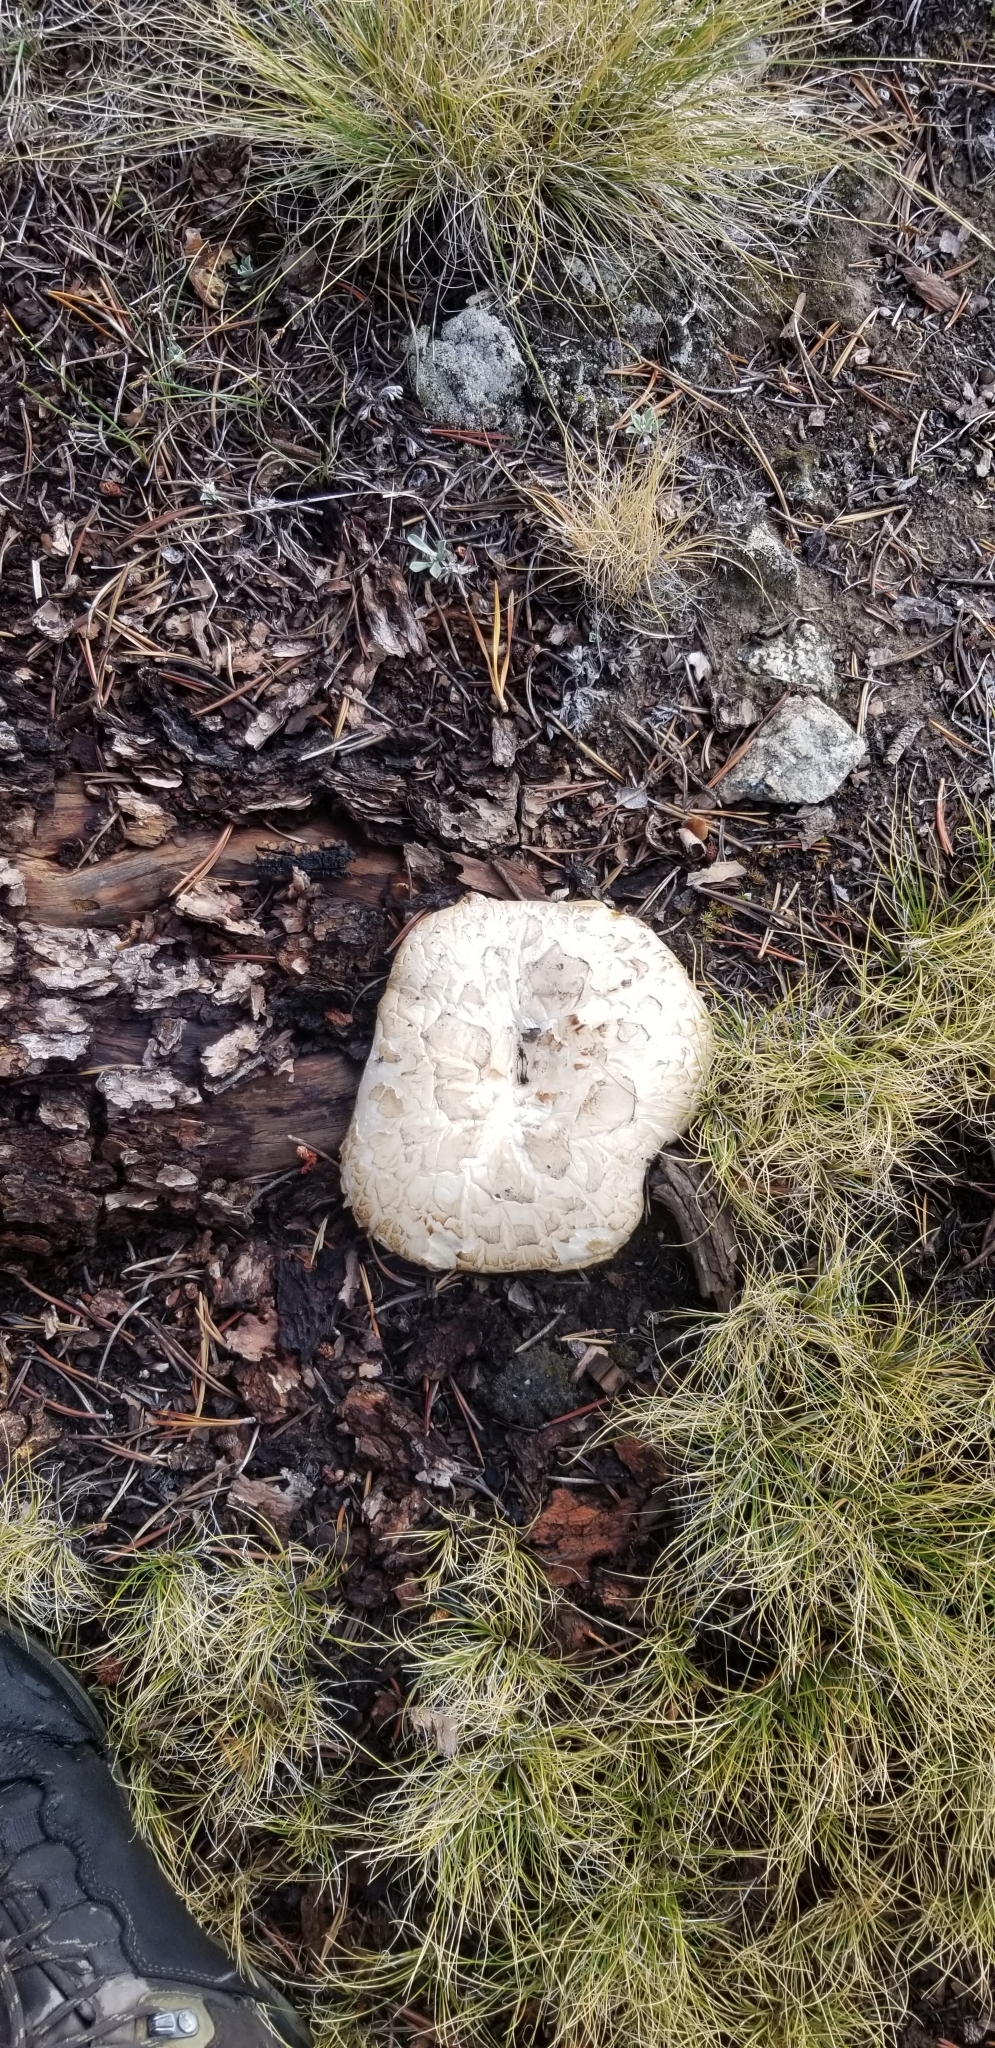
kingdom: Fungi
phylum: Basidiomycota
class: Agaricomycetes
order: Gloeophyllales
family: Gloeophyllaceae
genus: Neolentinus
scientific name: Neolentinus ponderosus
